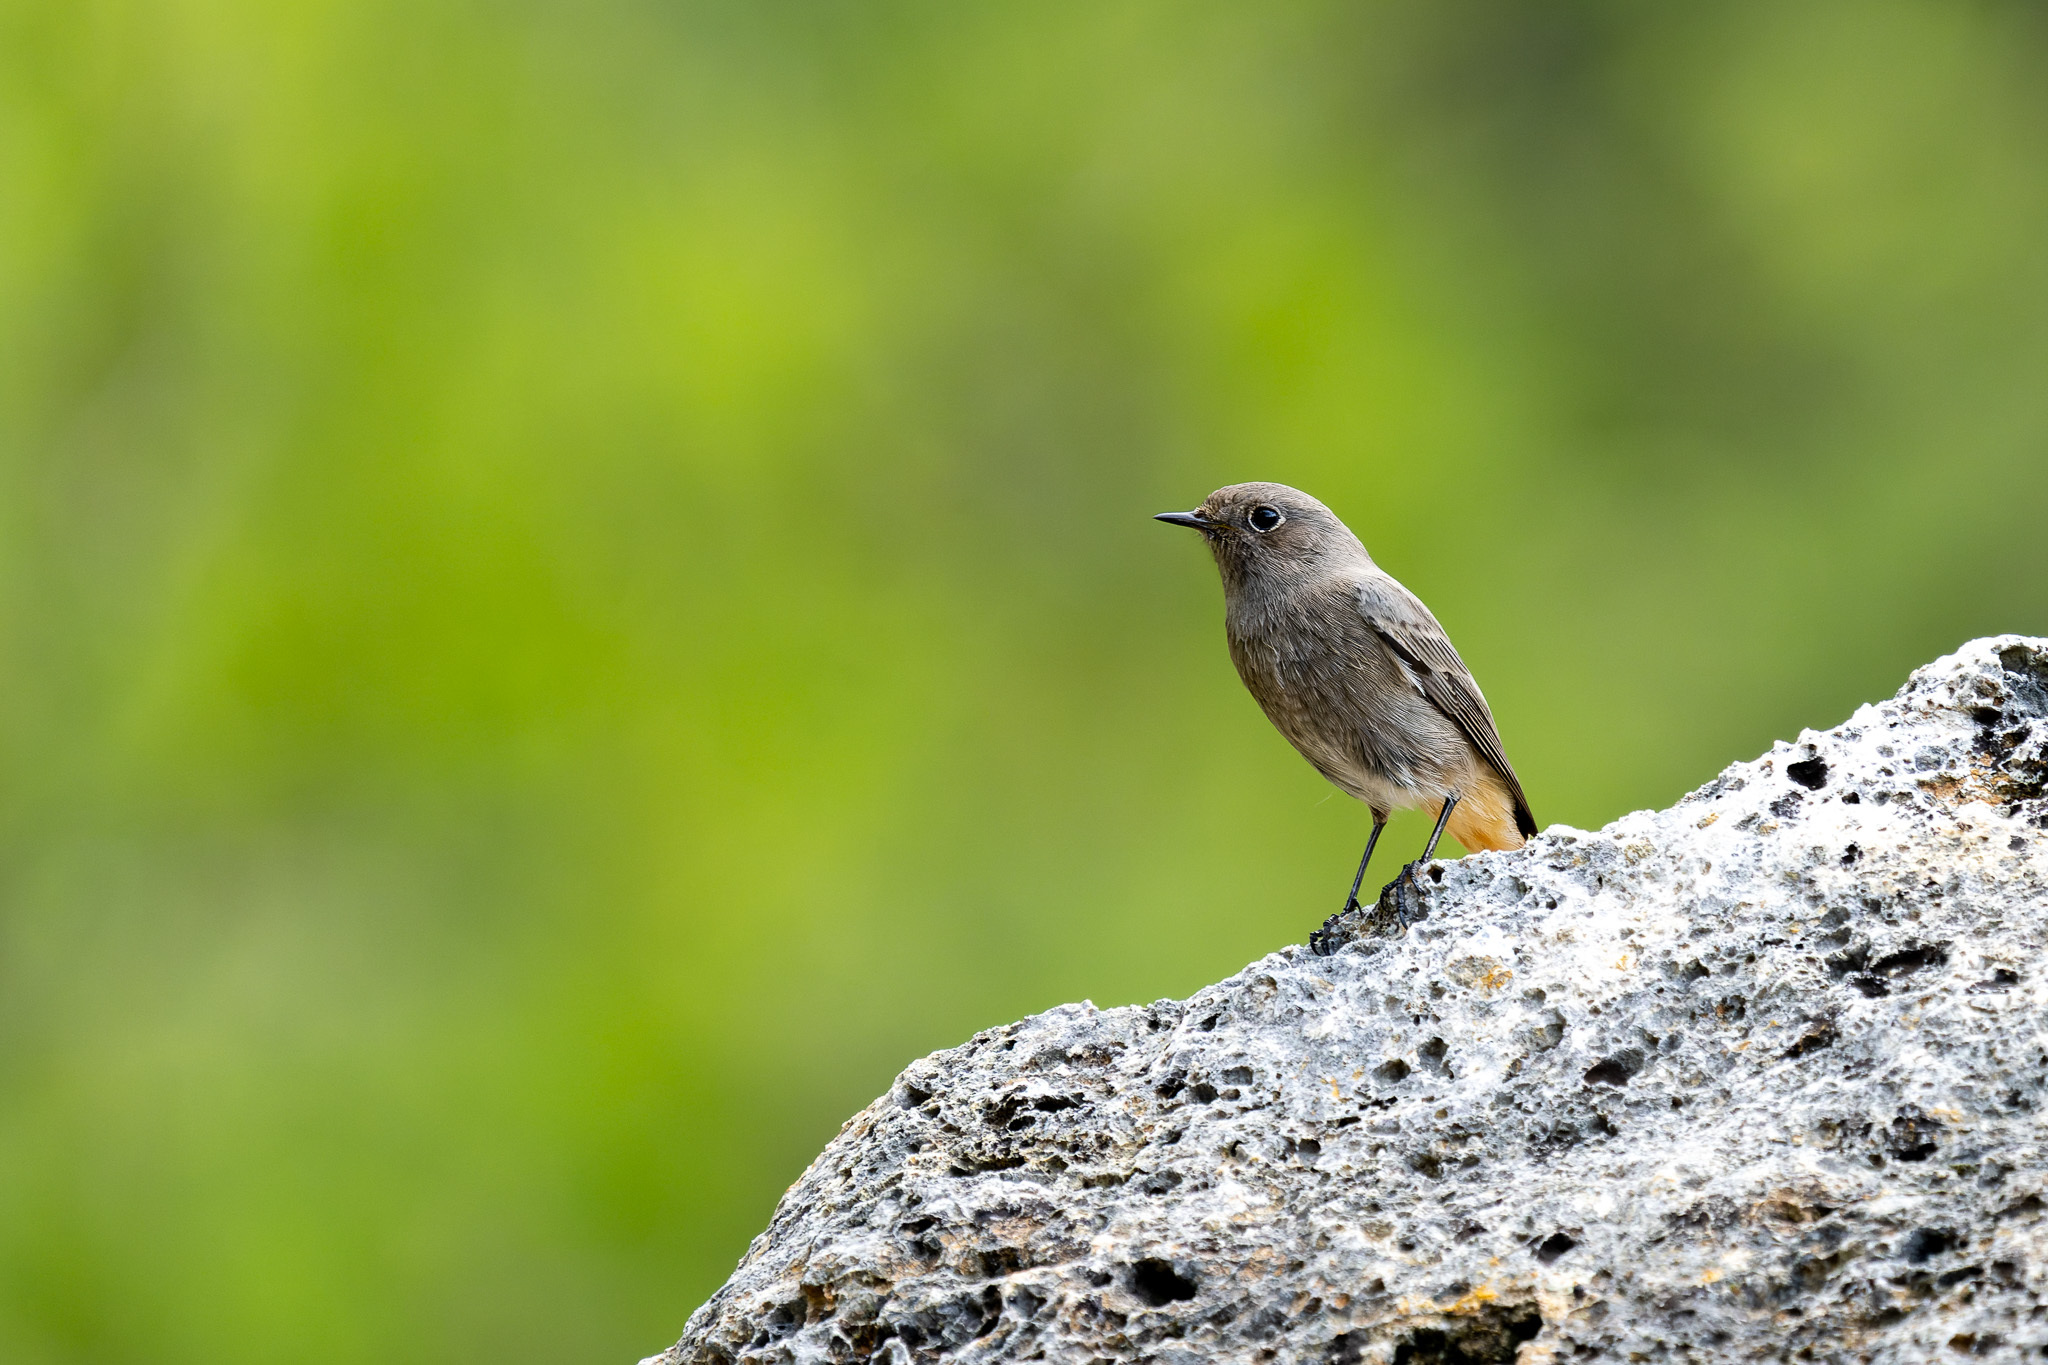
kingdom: Animalia
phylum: Chordata
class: Aves
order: Passeriformes
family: Muscicapidae
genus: Phoenicurus
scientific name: Phoenicurus ochruros
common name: Black redstart
